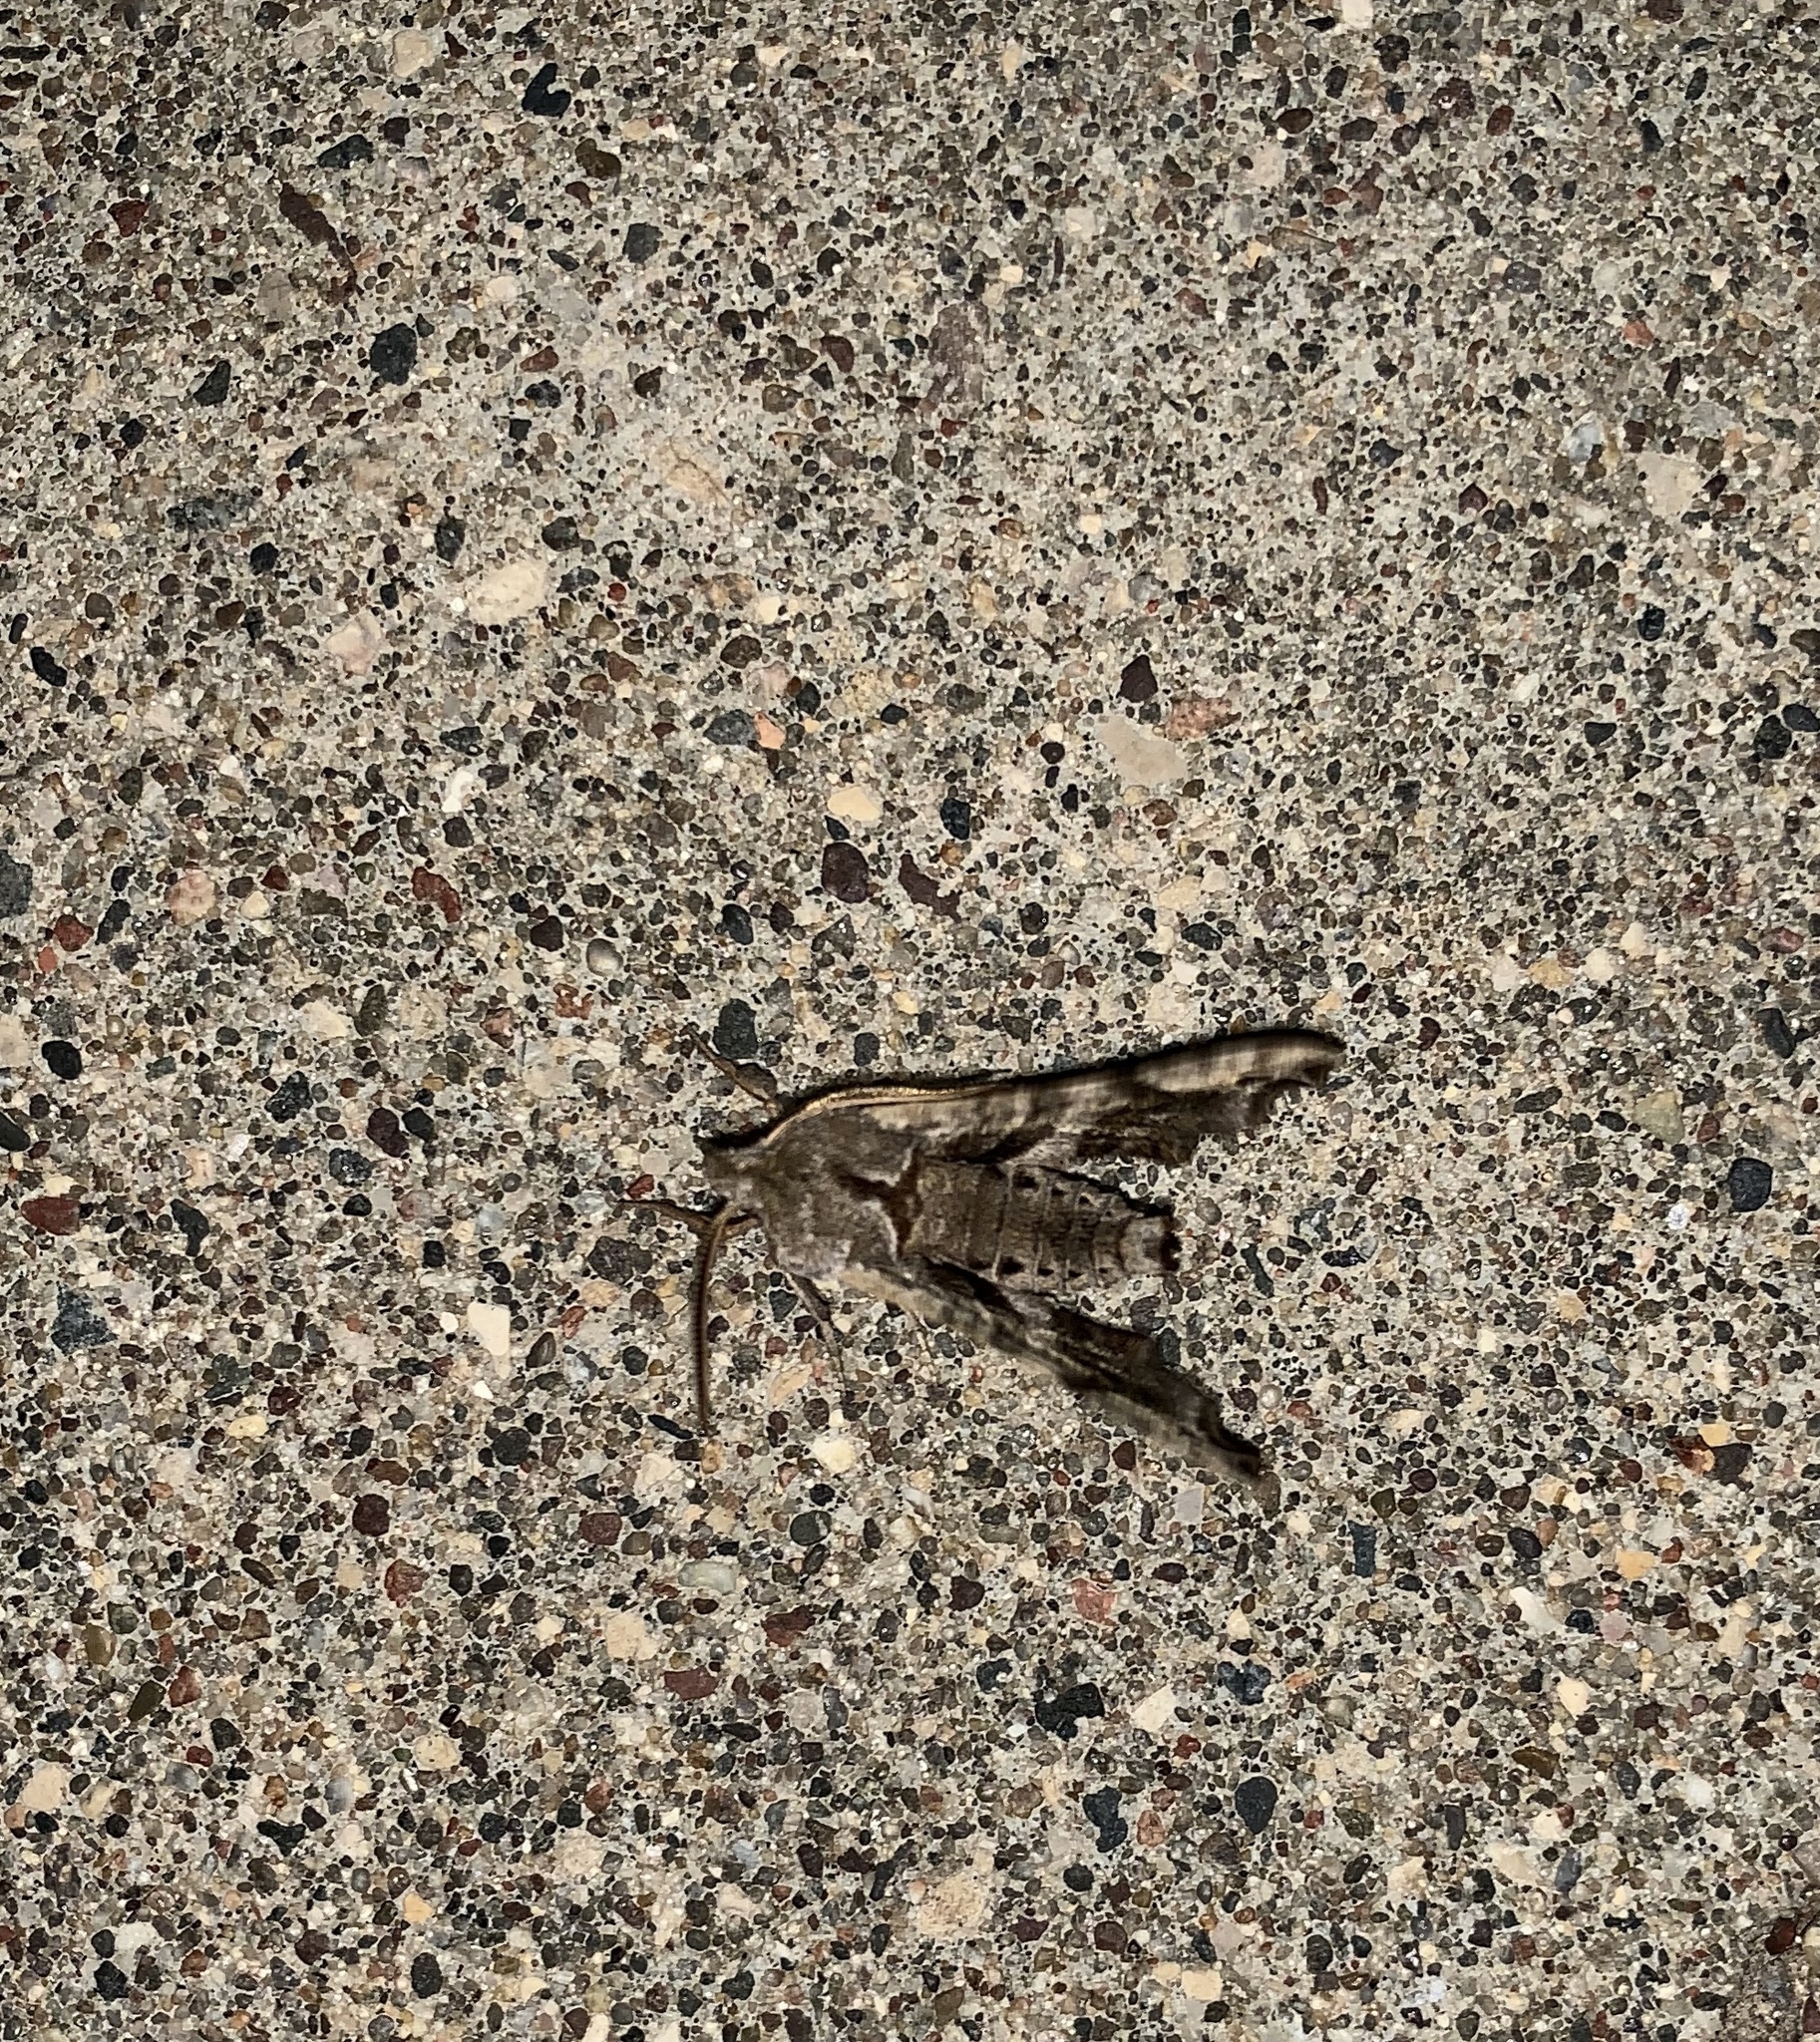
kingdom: Animalia
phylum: Arthropoda
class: Insecta
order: Lepidoptera
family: Sphingidae
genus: Deidamia
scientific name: Deidamia inscriptum
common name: Lettered sphinx
